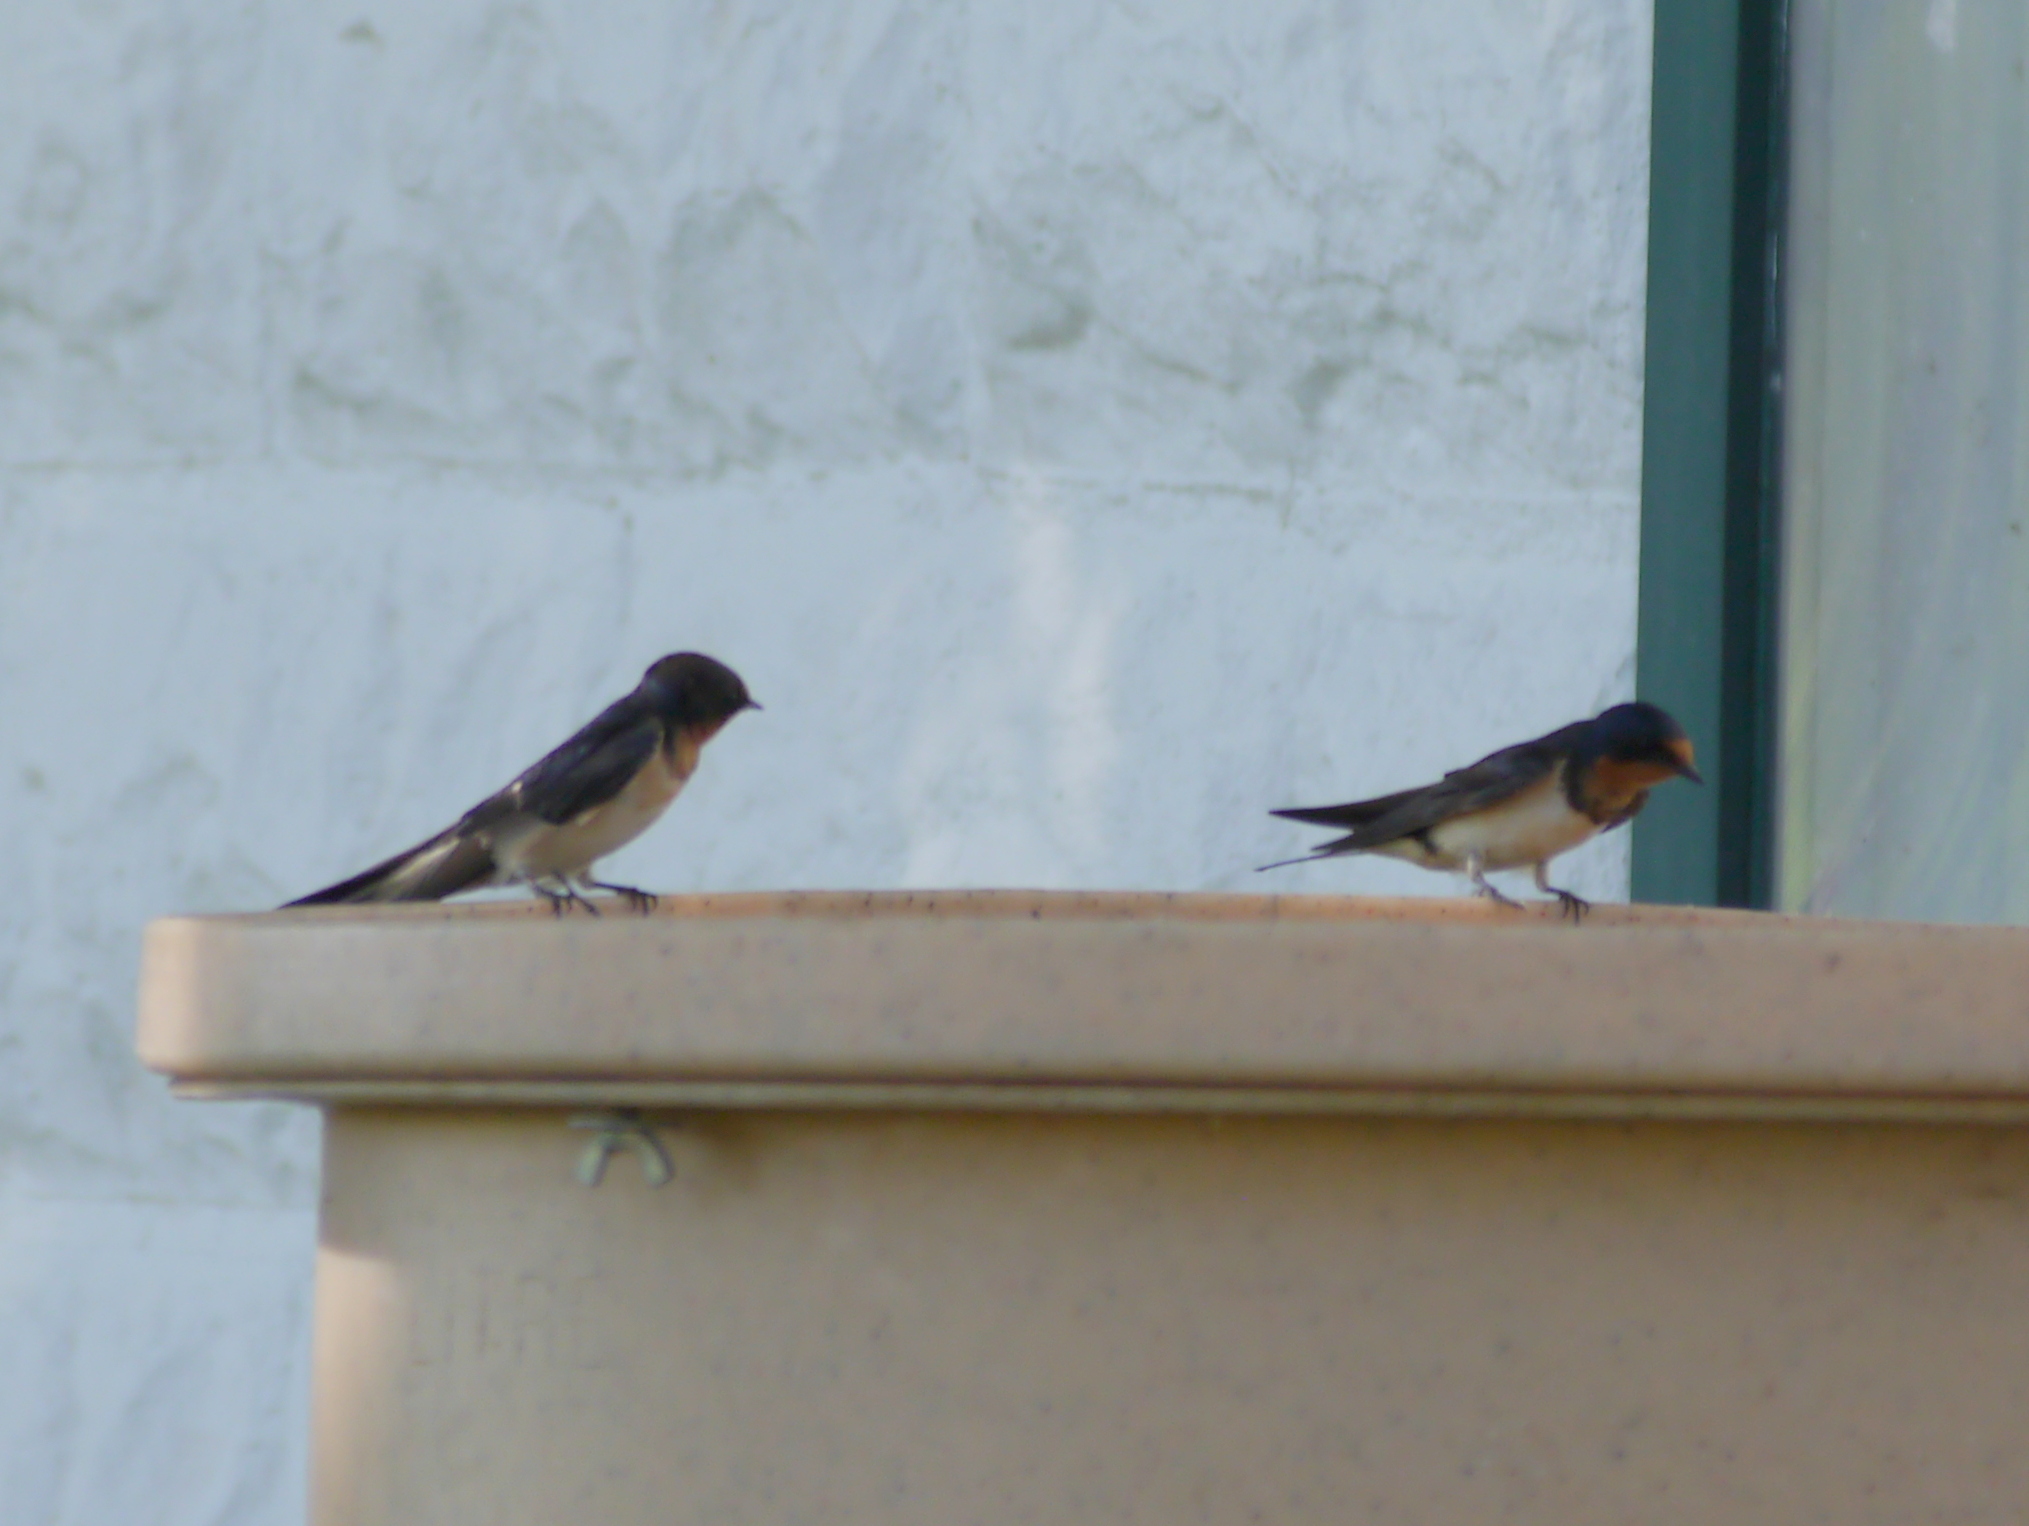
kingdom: Animalia
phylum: Chordata
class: Aves
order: Passeriformes
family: Hirundinidae
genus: Hirundo
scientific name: Hirundo rustica
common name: Barn swallow
